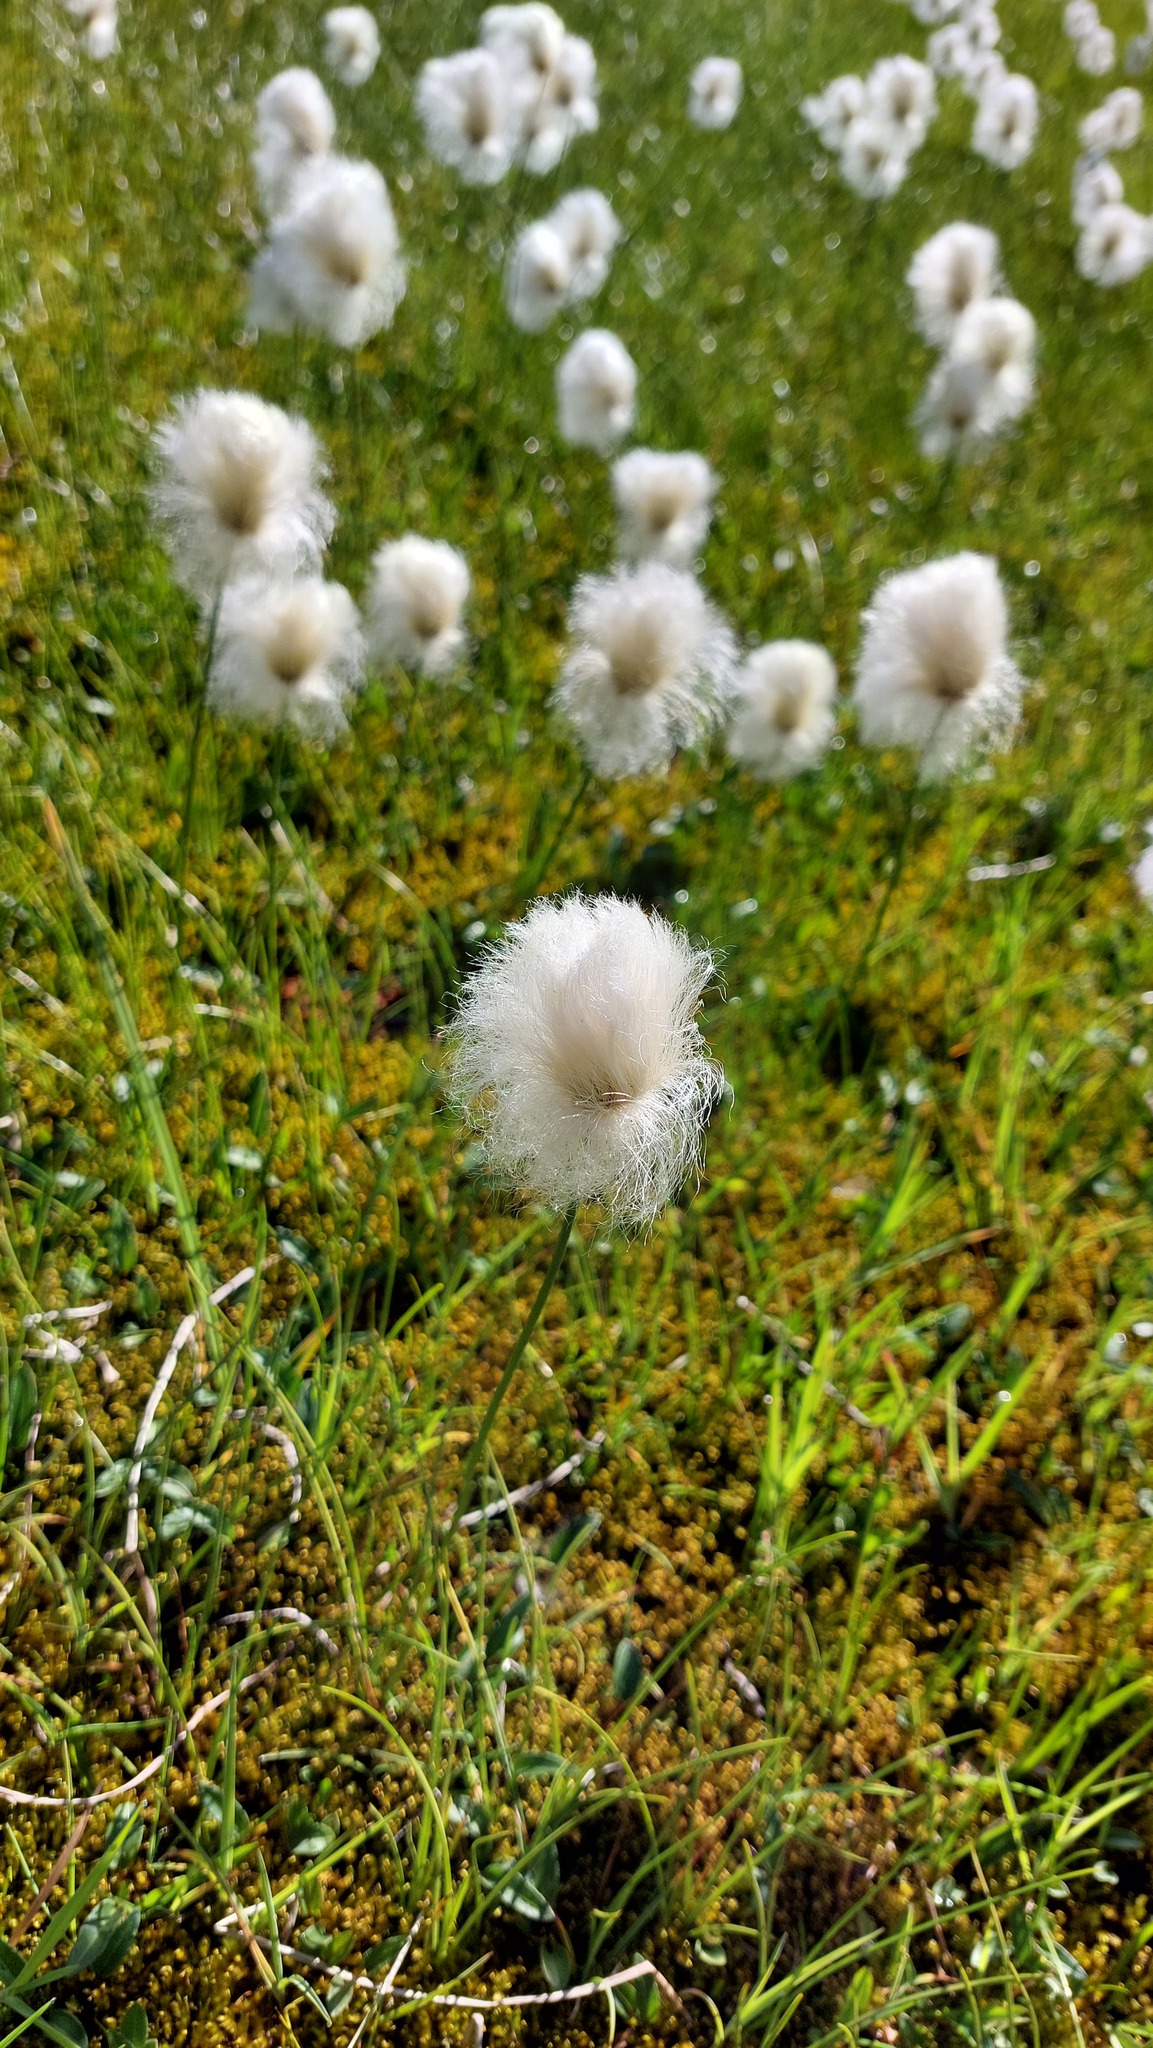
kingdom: Plantae
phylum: Tracheophyta
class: Liliopsida
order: Poales
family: Cyperaceae
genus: Eriophorum
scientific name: Eriophorum scheuchzeri
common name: Scheuchzer's cottongrass
